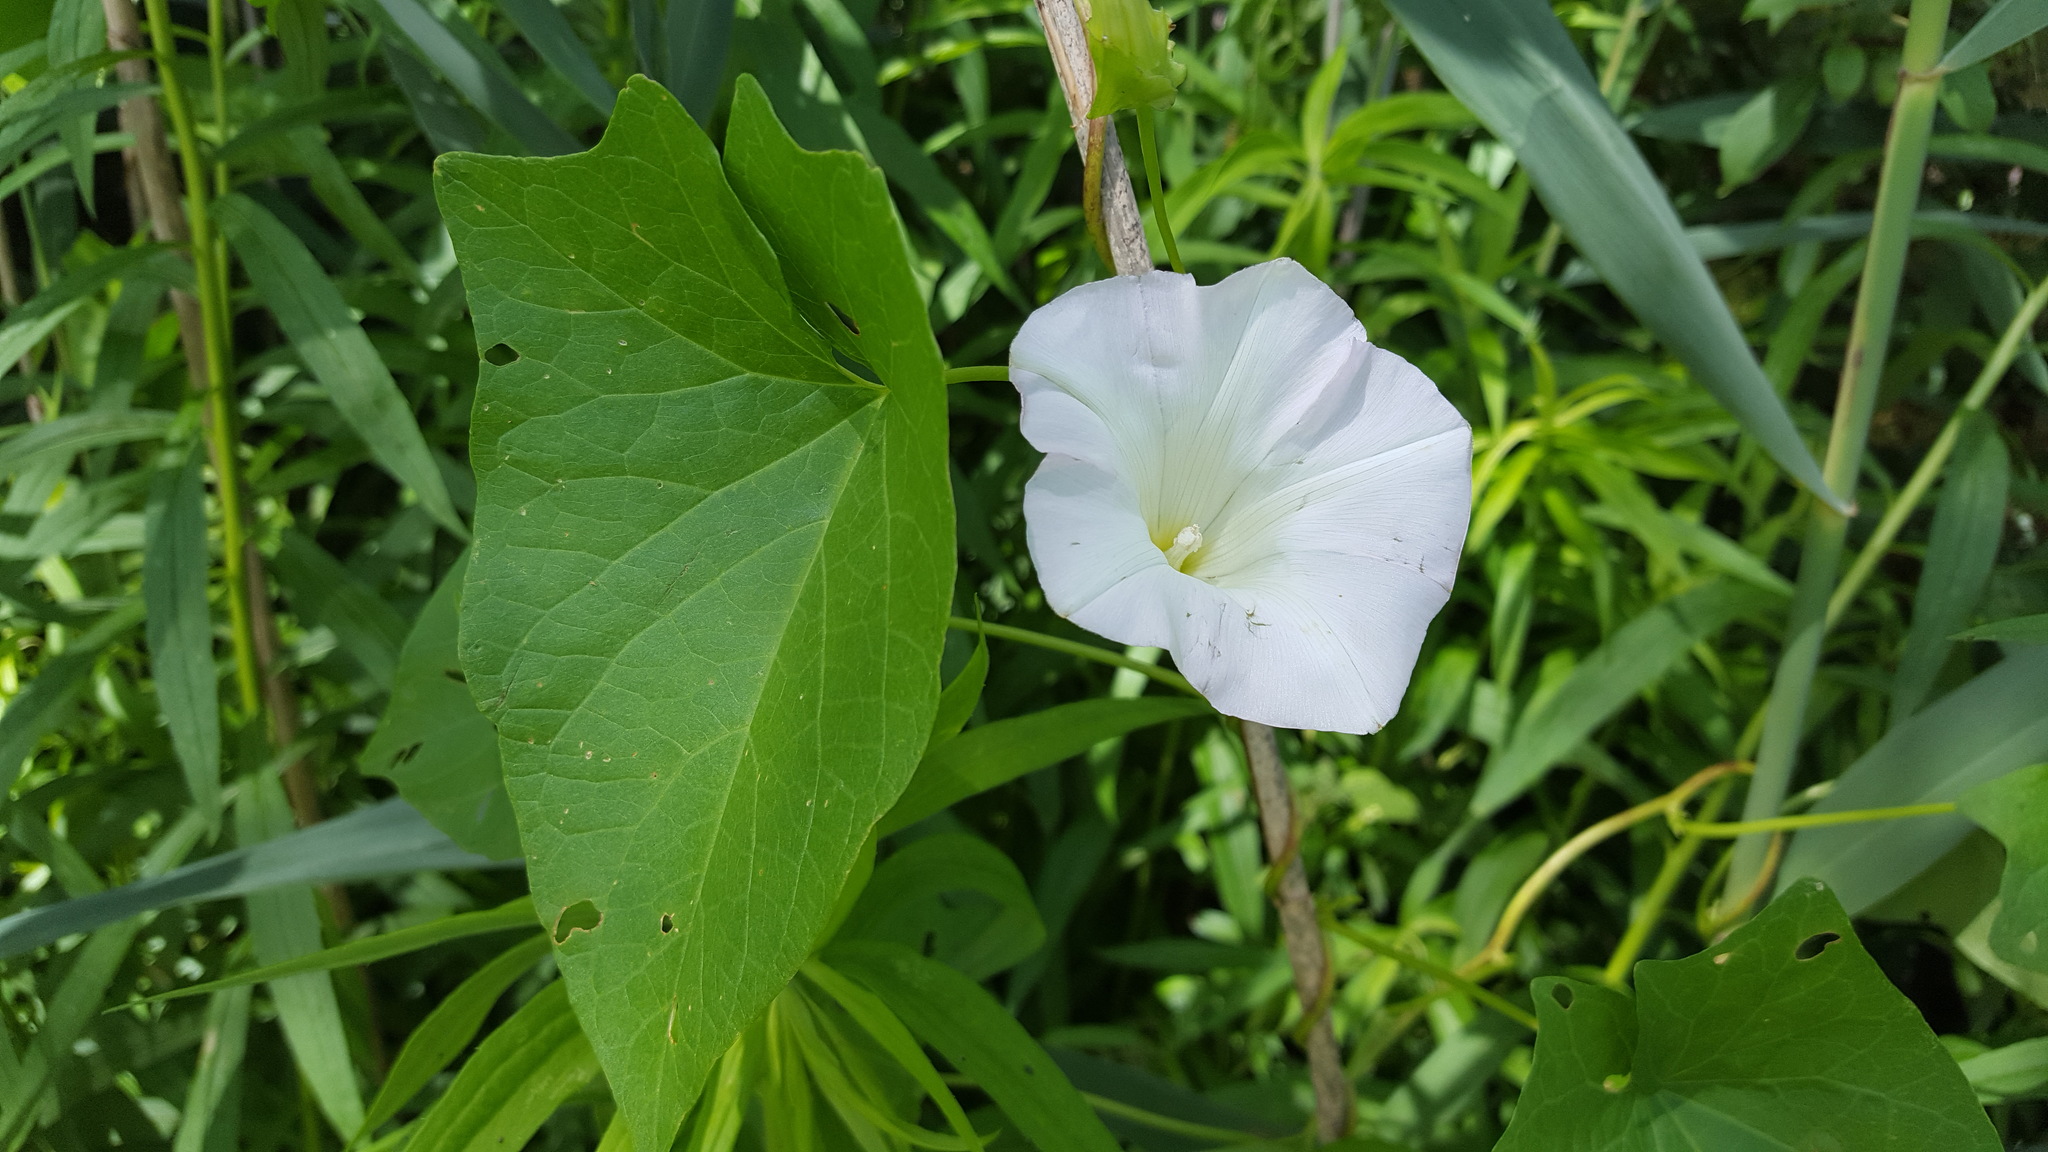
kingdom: Plantae
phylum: Tracheophyta
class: Magnoliopsida
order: Solanales
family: Convolvulaceae
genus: Calystegia
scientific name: Calystegia sepium
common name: Hedge bindweed
